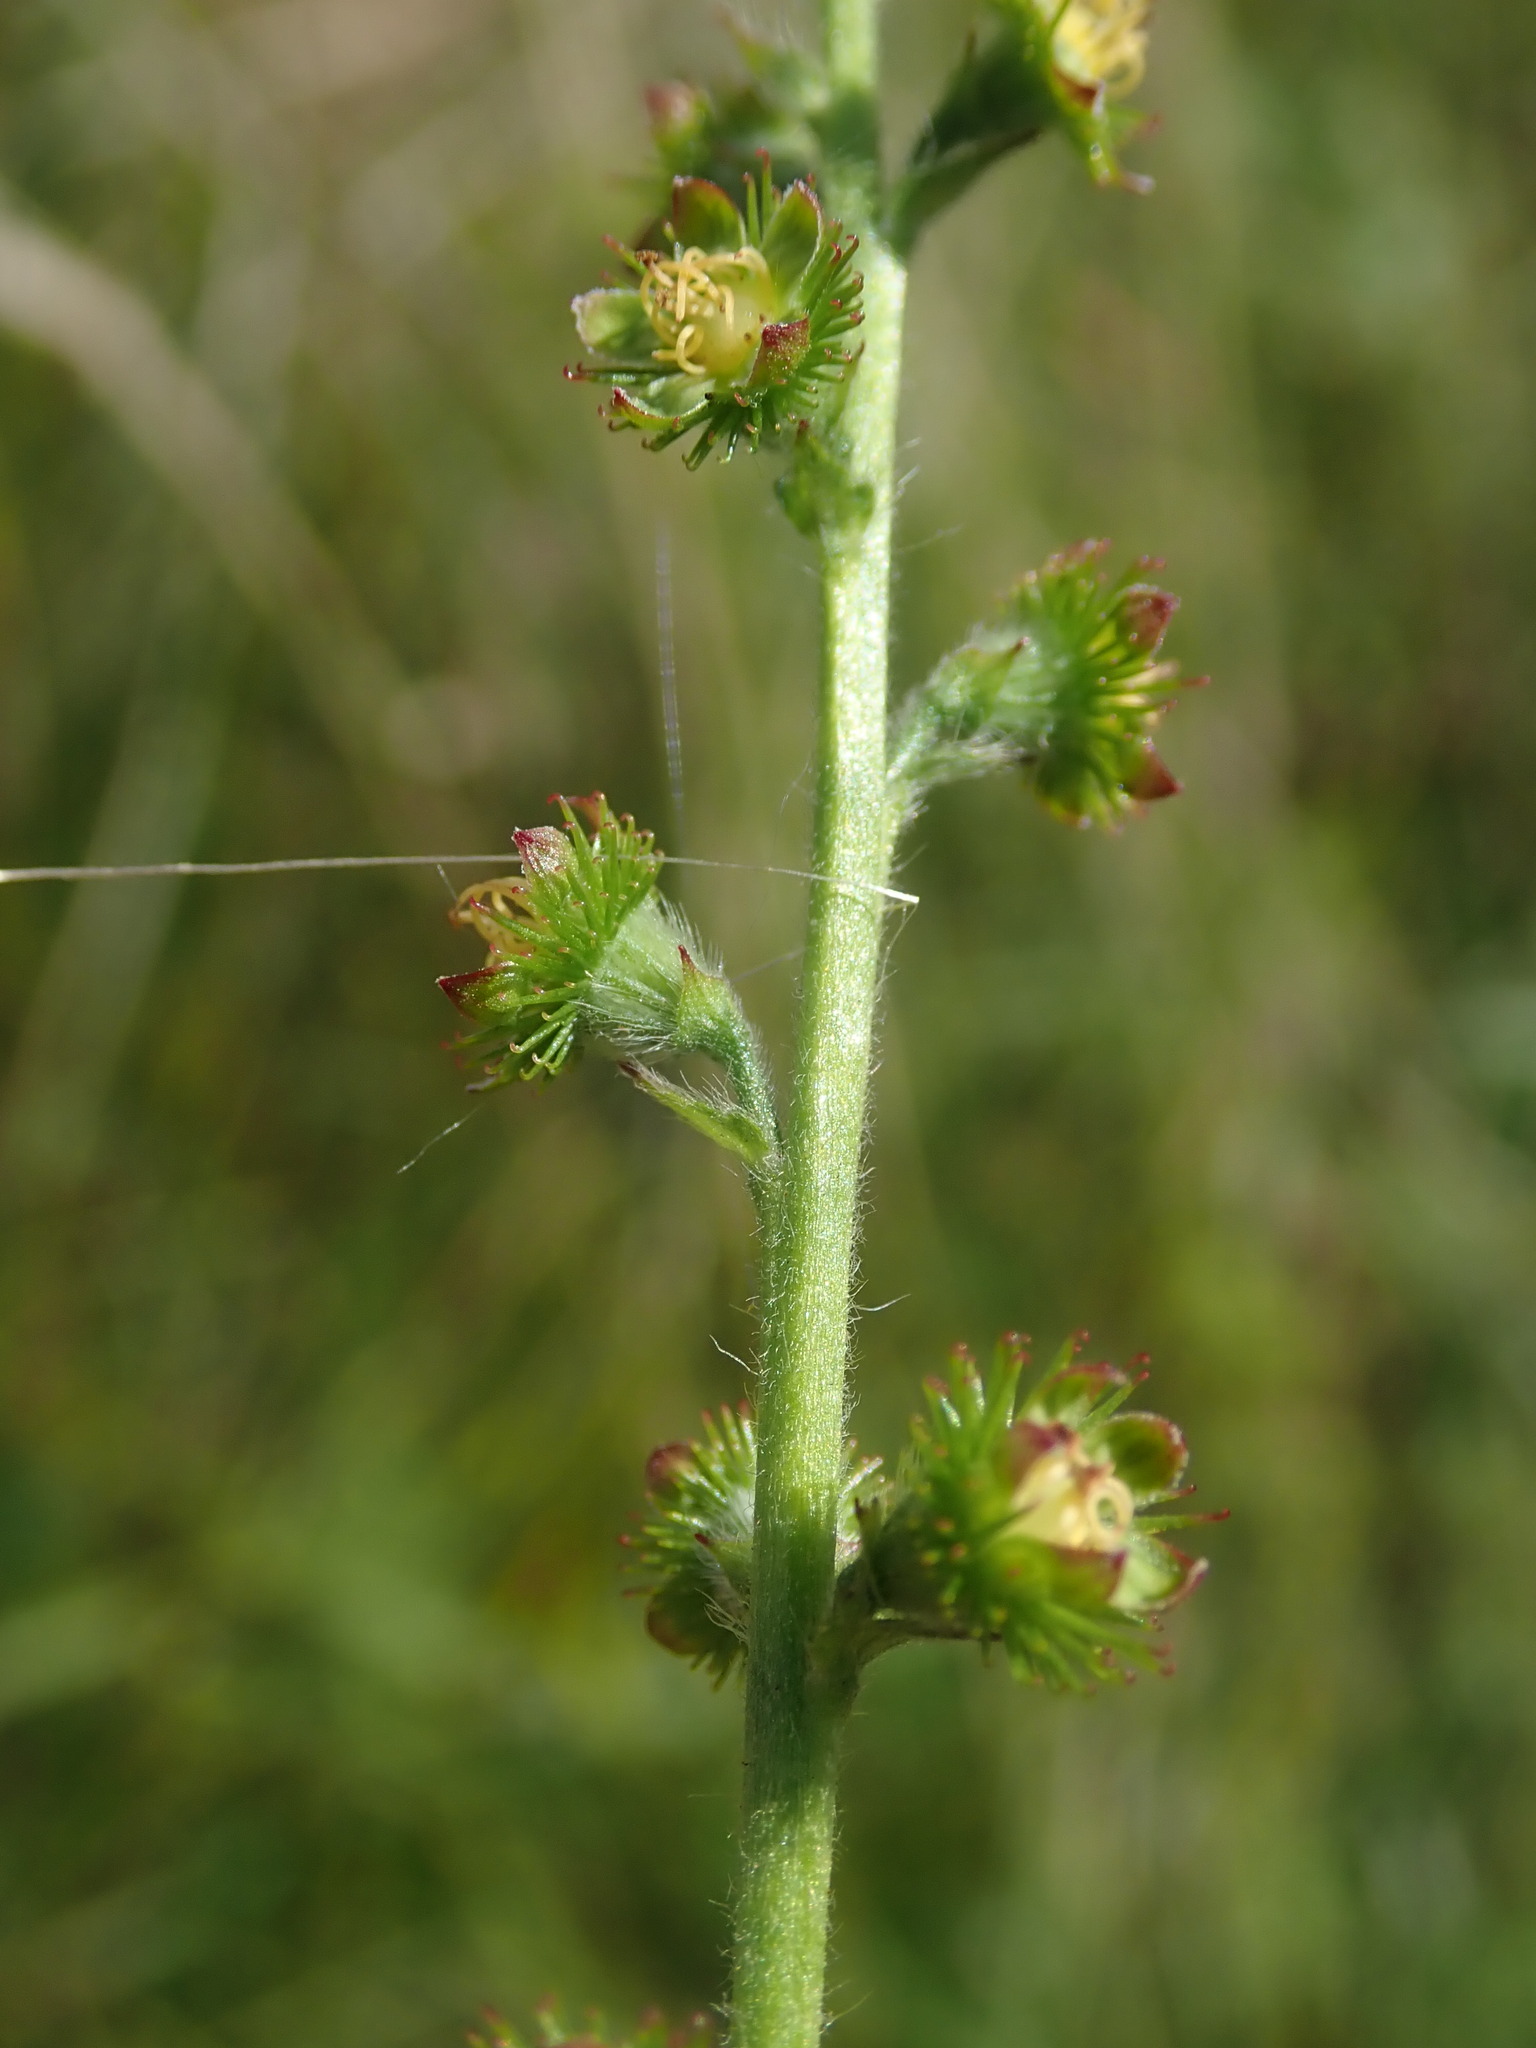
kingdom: Plantae
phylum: Tracheophyta
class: Magnoliopsida
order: Rosales
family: Rosaceae
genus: Agrimonia
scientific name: Agrimonia eupatoria
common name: Agrimony
